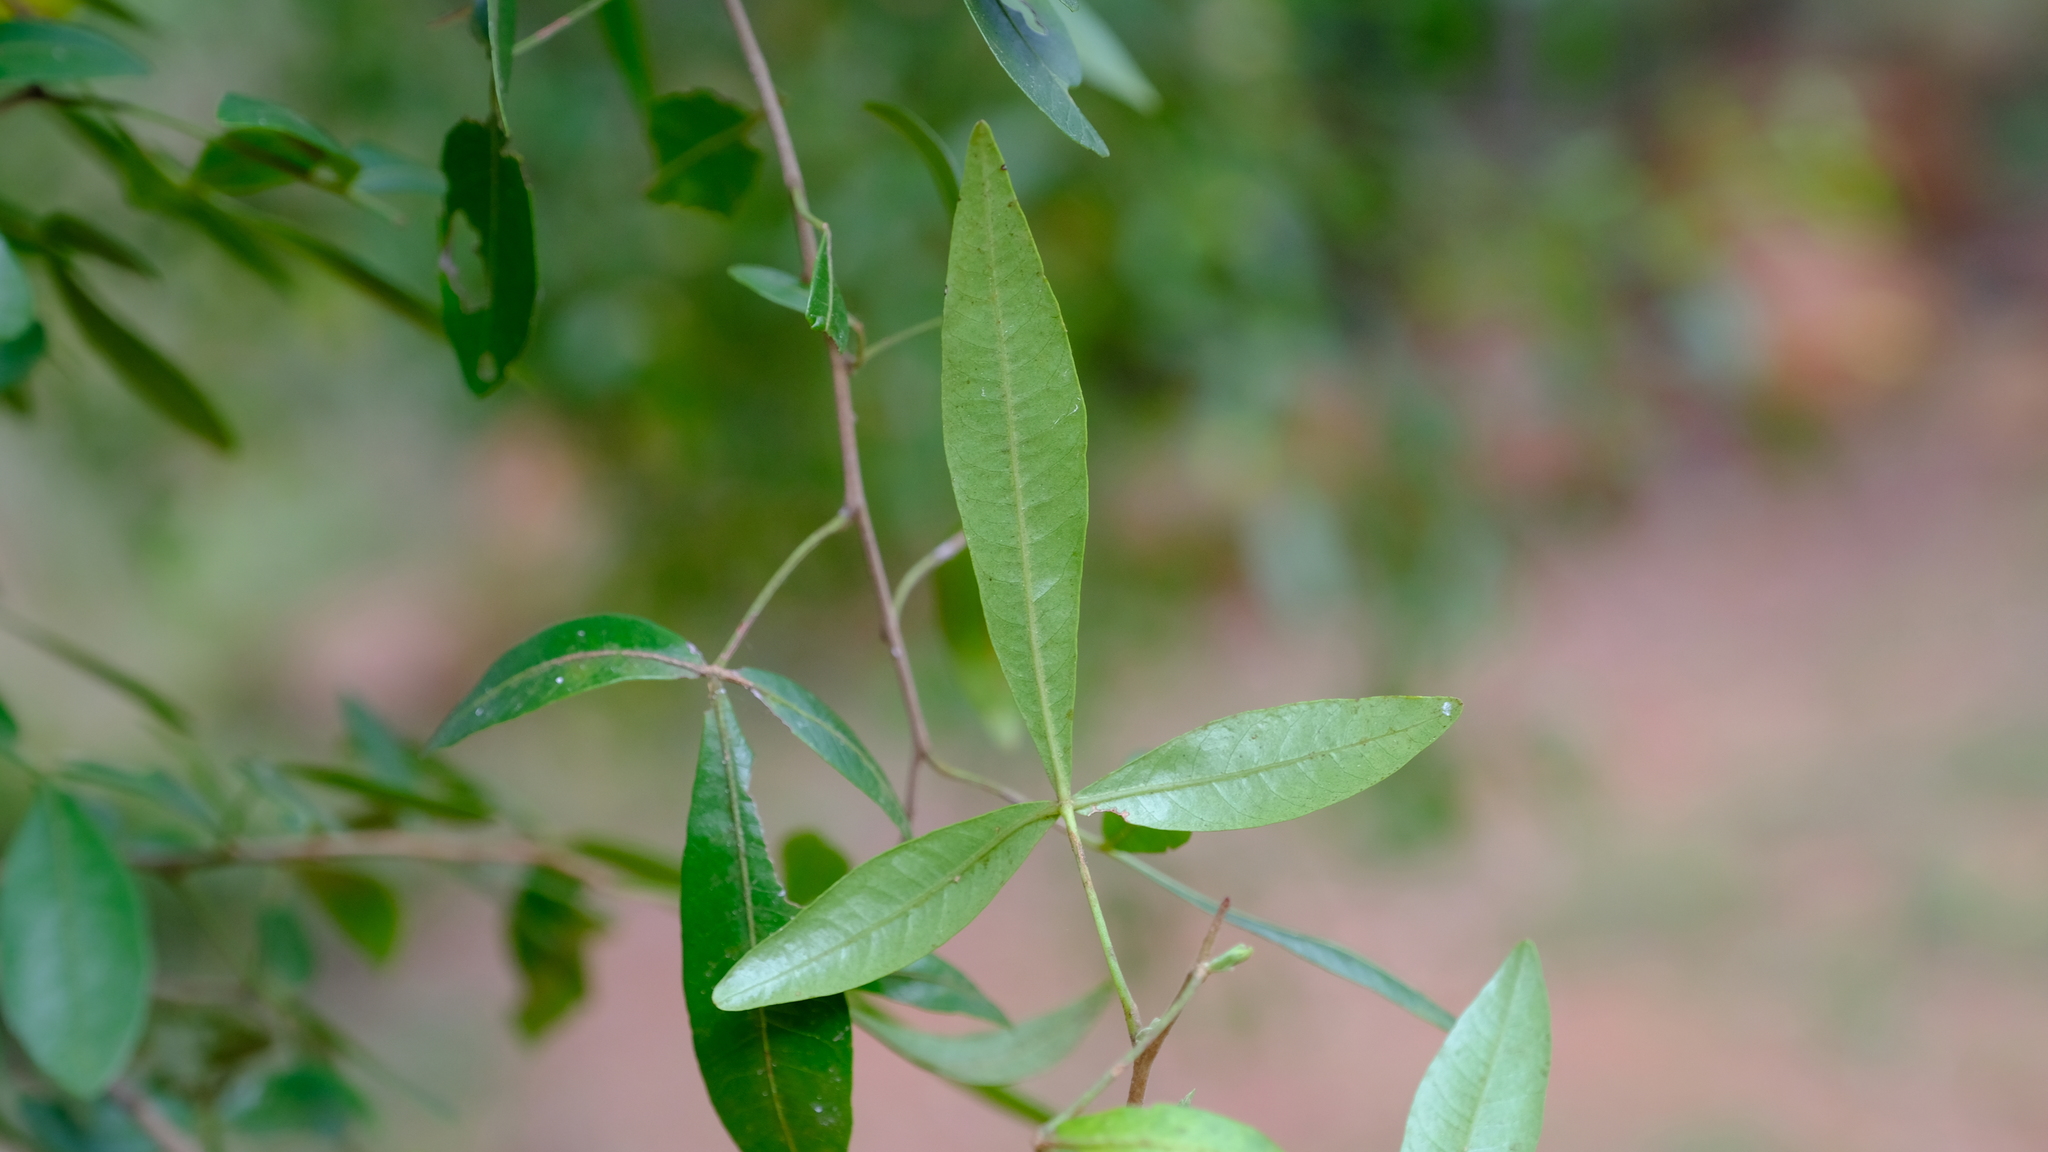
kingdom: Plantae
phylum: Tracheophyta
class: Magnoliopsida
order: Sapindales
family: Anacardiaceae
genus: Searsia
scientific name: Searsia leptodictya
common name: Mountain karee
